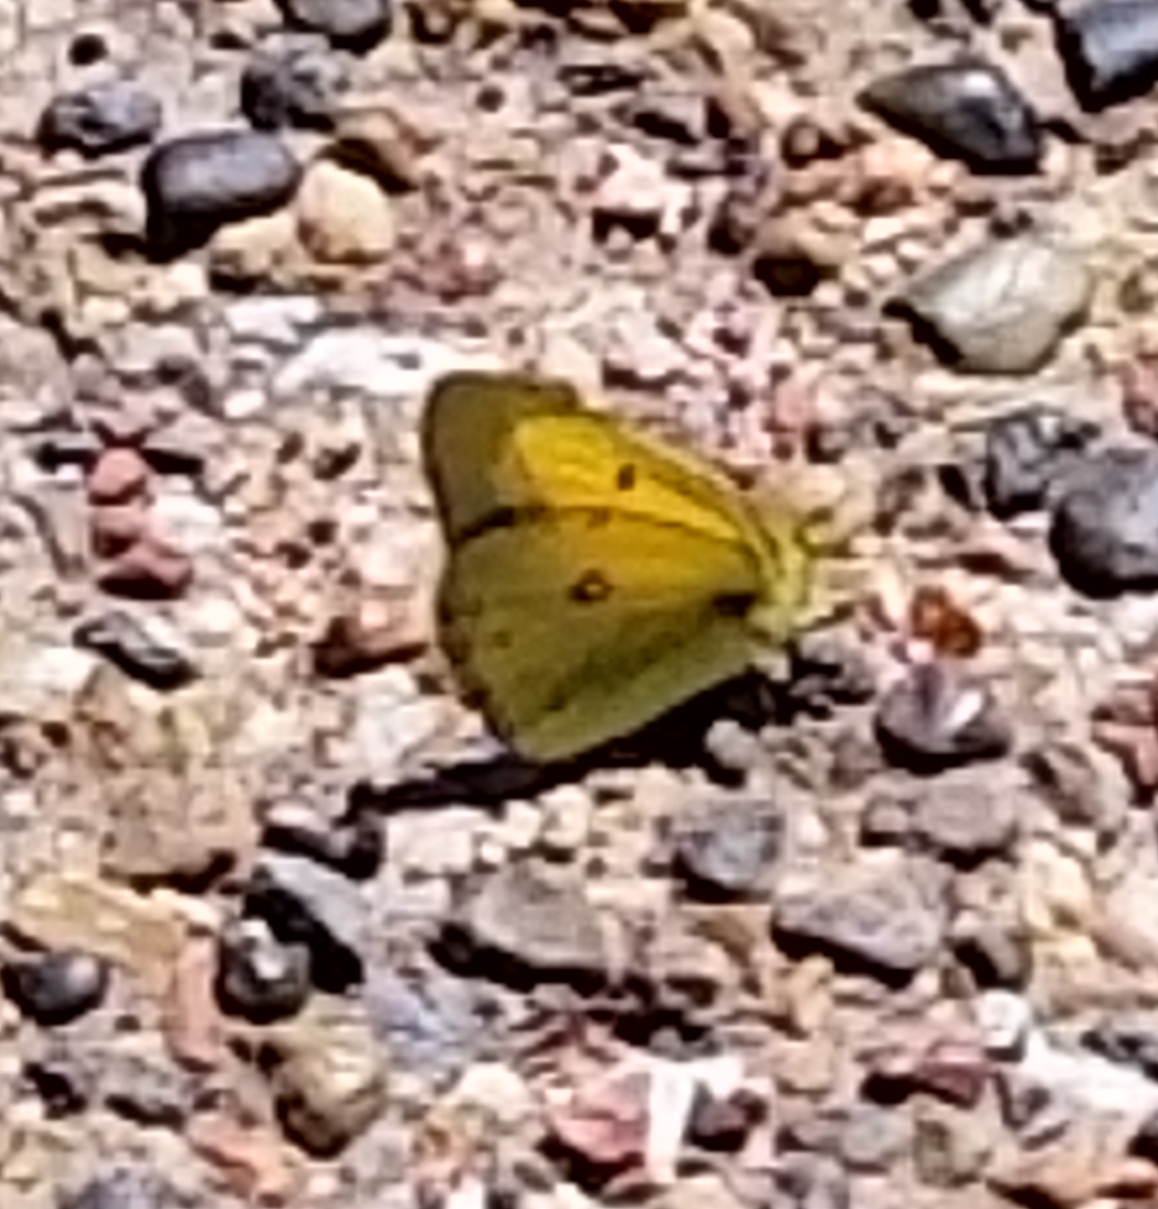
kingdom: Animalia
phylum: Arthropoda
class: Insecta
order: Lepidoptera
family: Pieridae
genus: Colias
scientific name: Colias eurytheme
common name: Alfalfa butterfly
